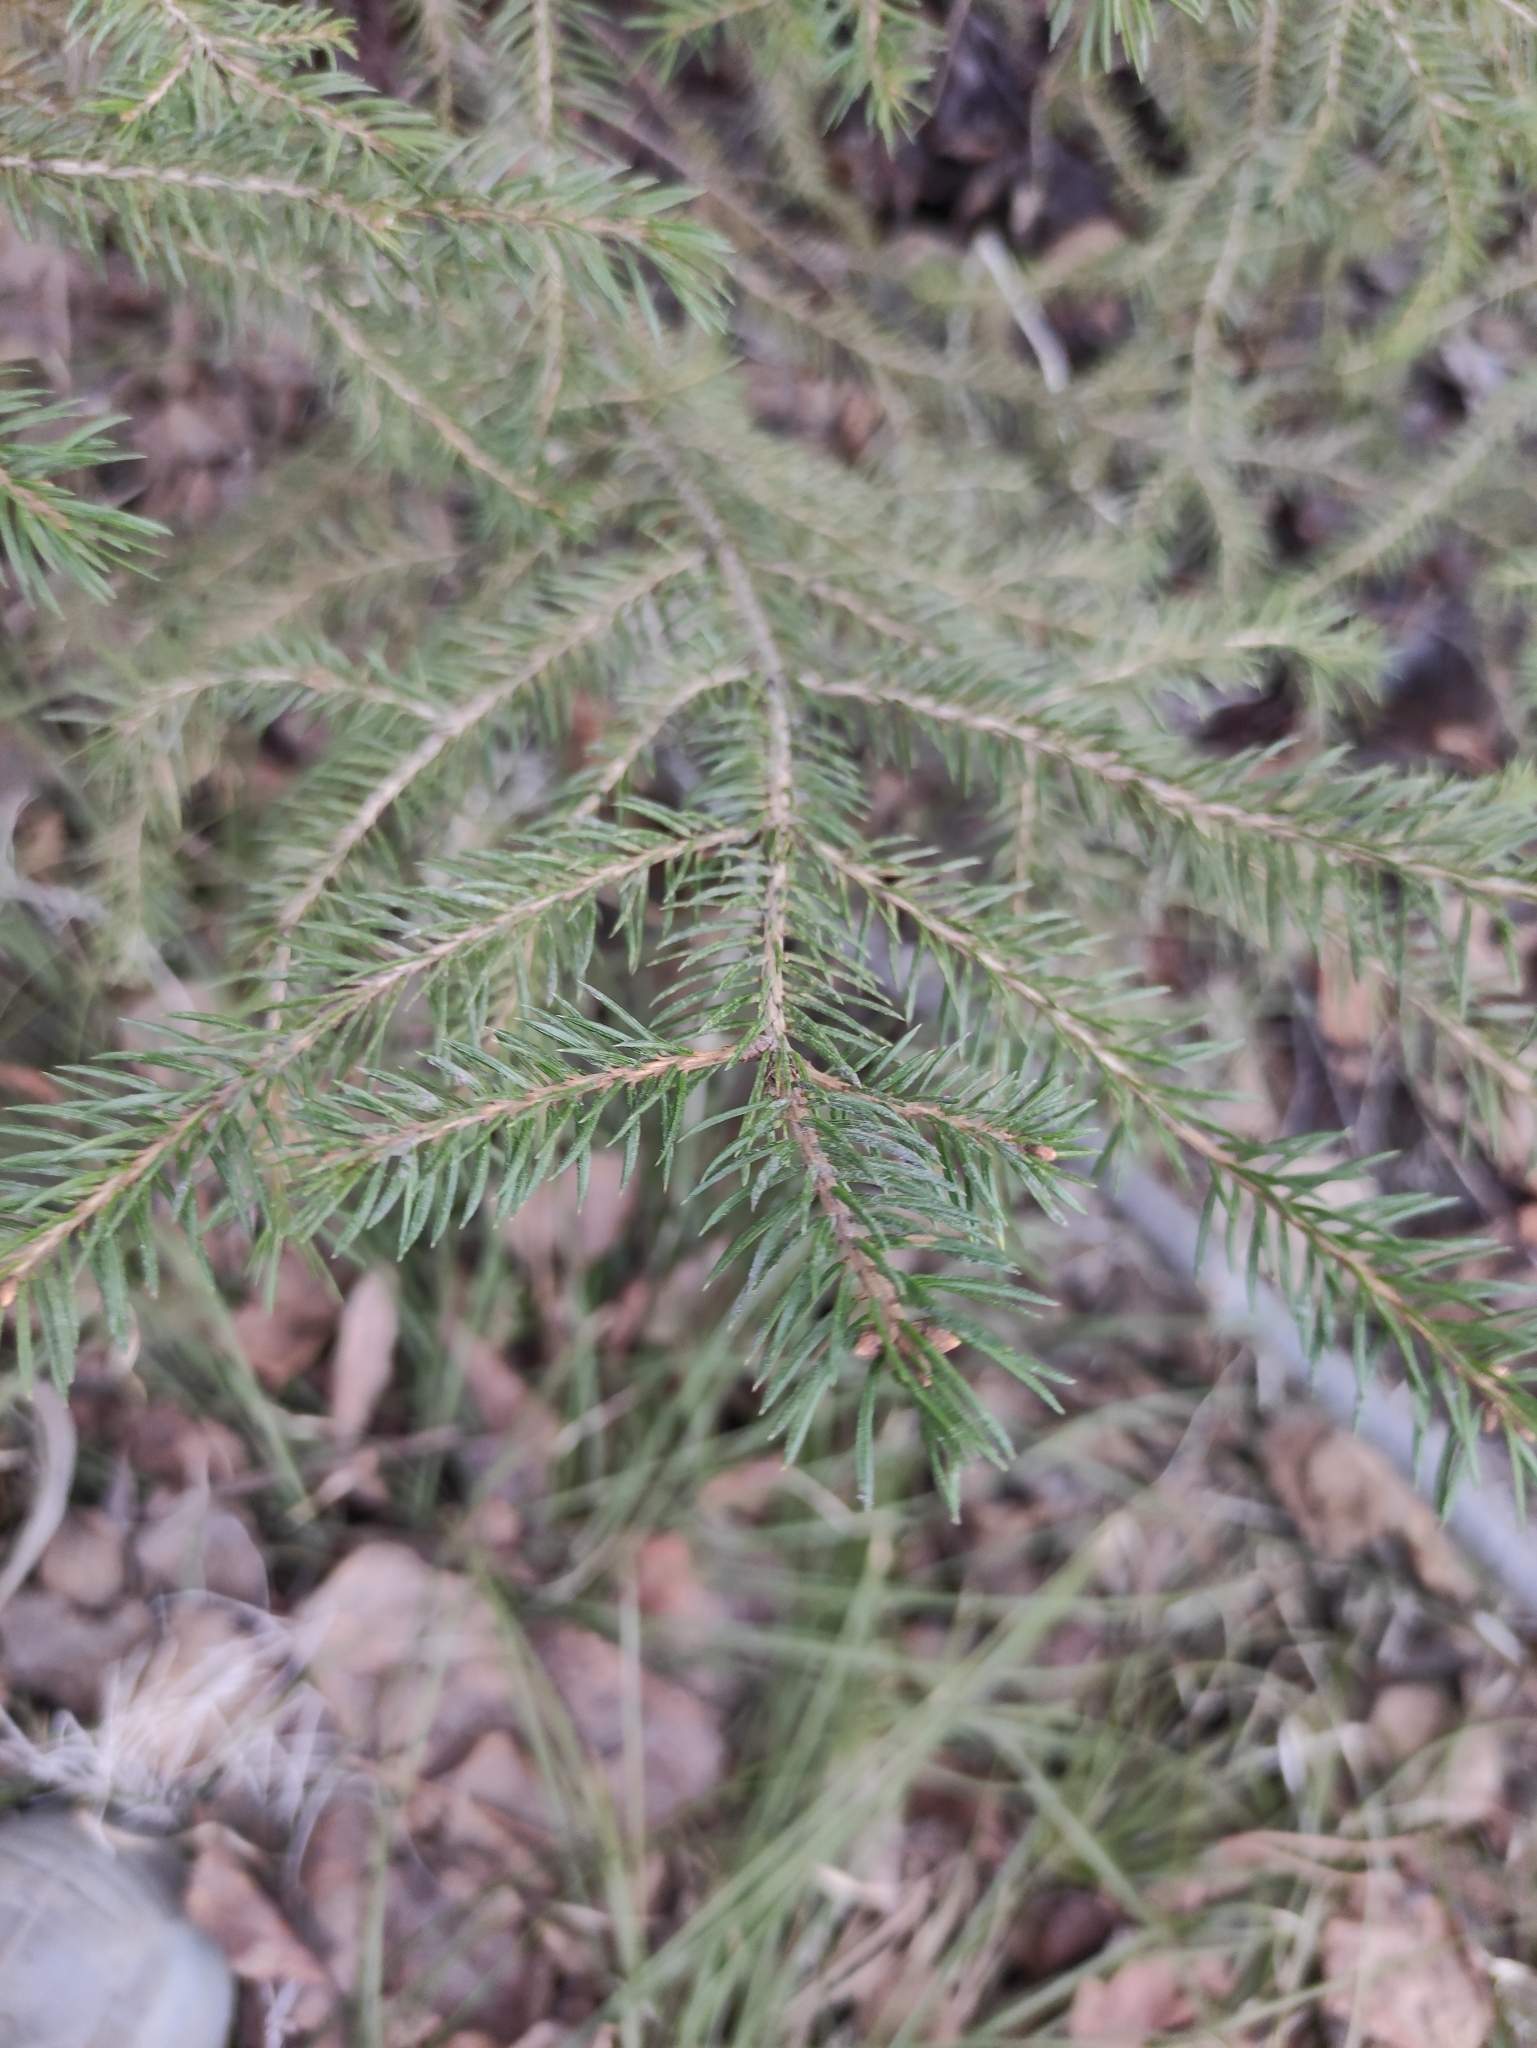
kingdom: Plantae
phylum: Tracheophyta
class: Pinopsida
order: Pinales
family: Pinaceae
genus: Picea
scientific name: Picea obovata
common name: Siberian spruce
